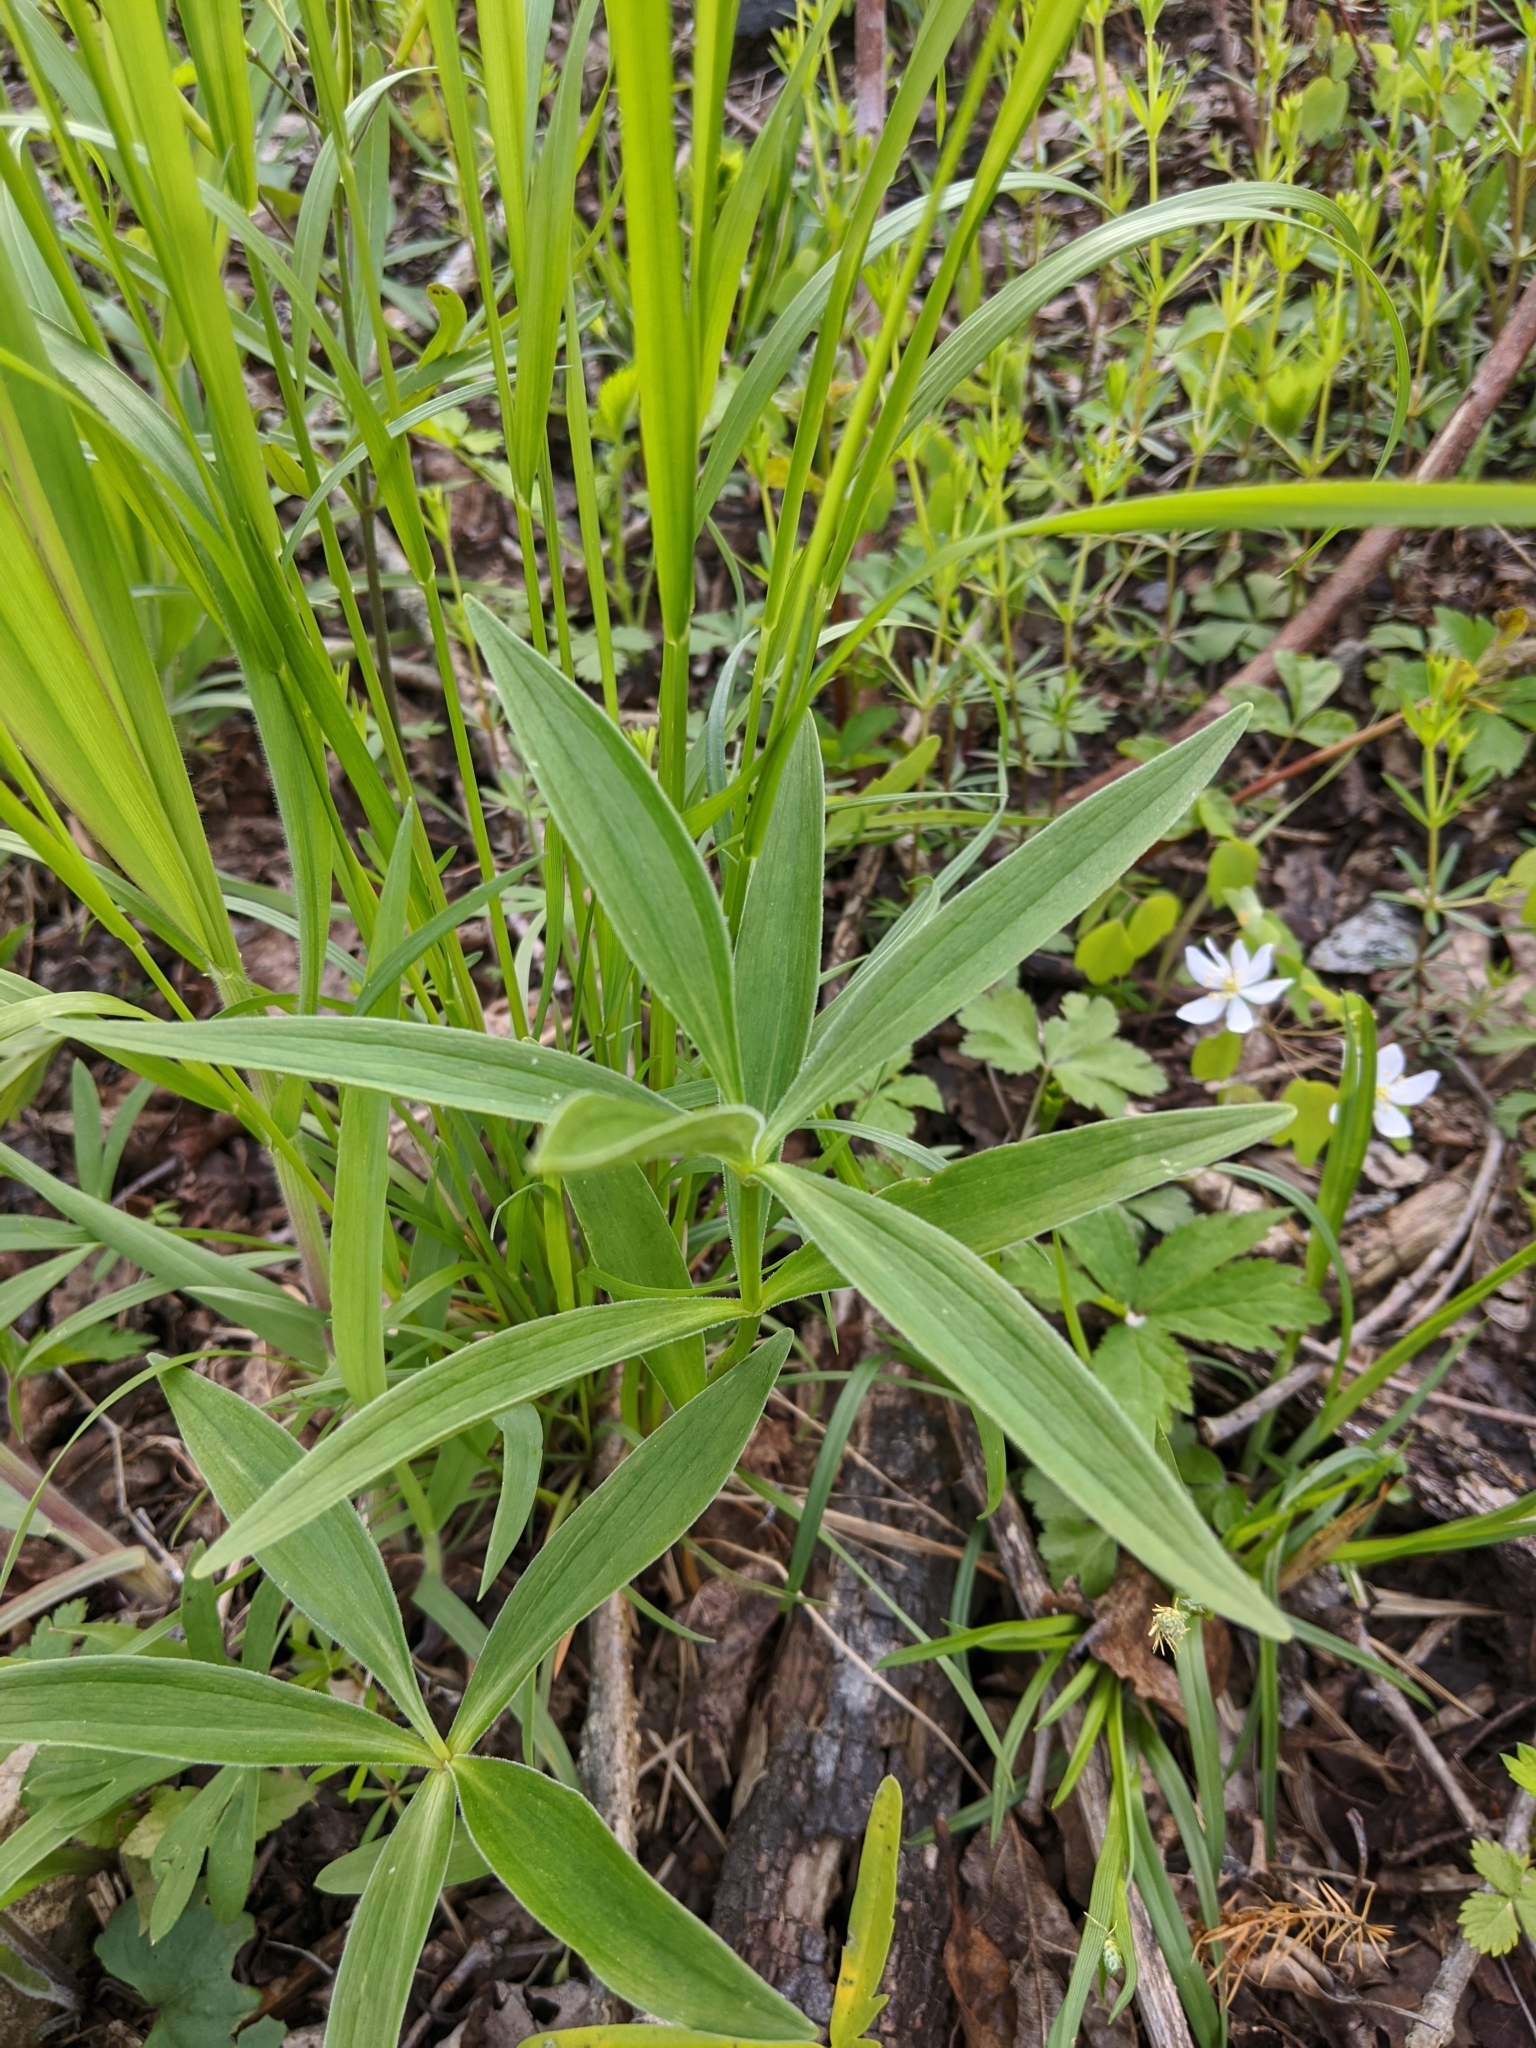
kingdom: Plantae
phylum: Tracheophyta
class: Liliopsida
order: Liliales
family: Liliaceae
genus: Lilium
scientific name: Lilium michiganense
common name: Michigan lily
